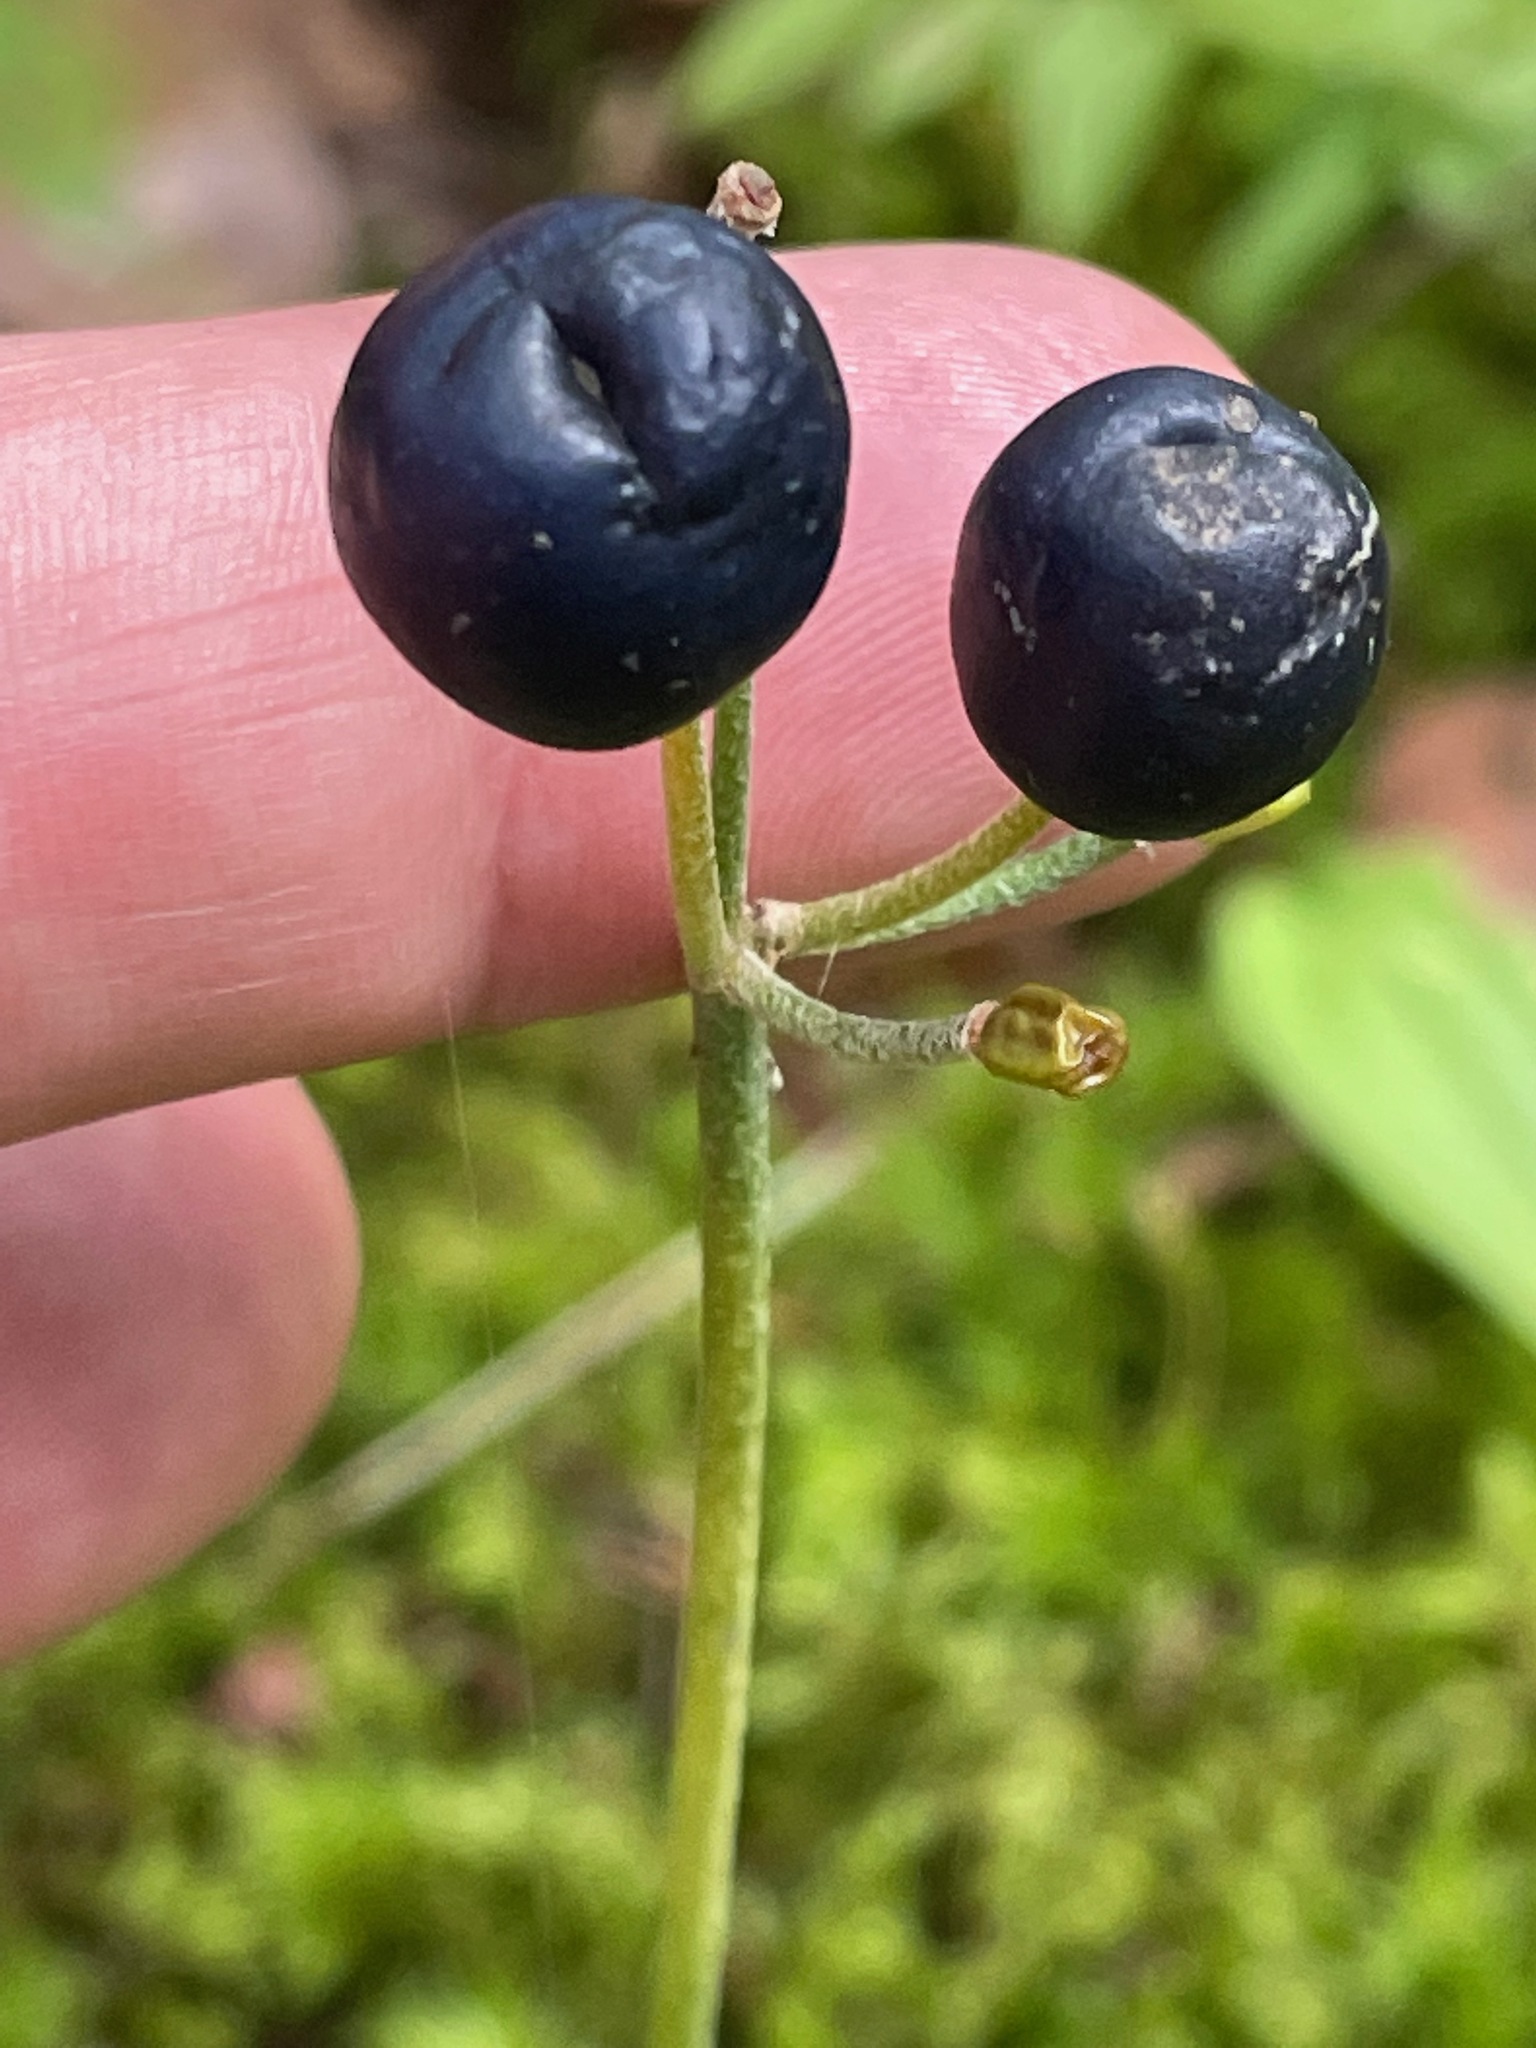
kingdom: Plantae
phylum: Tracheophyta
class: Liliopsida
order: Liliales
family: Liliaceae
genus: Clintonia
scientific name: Clintonia borealis
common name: Yellow clintonia
